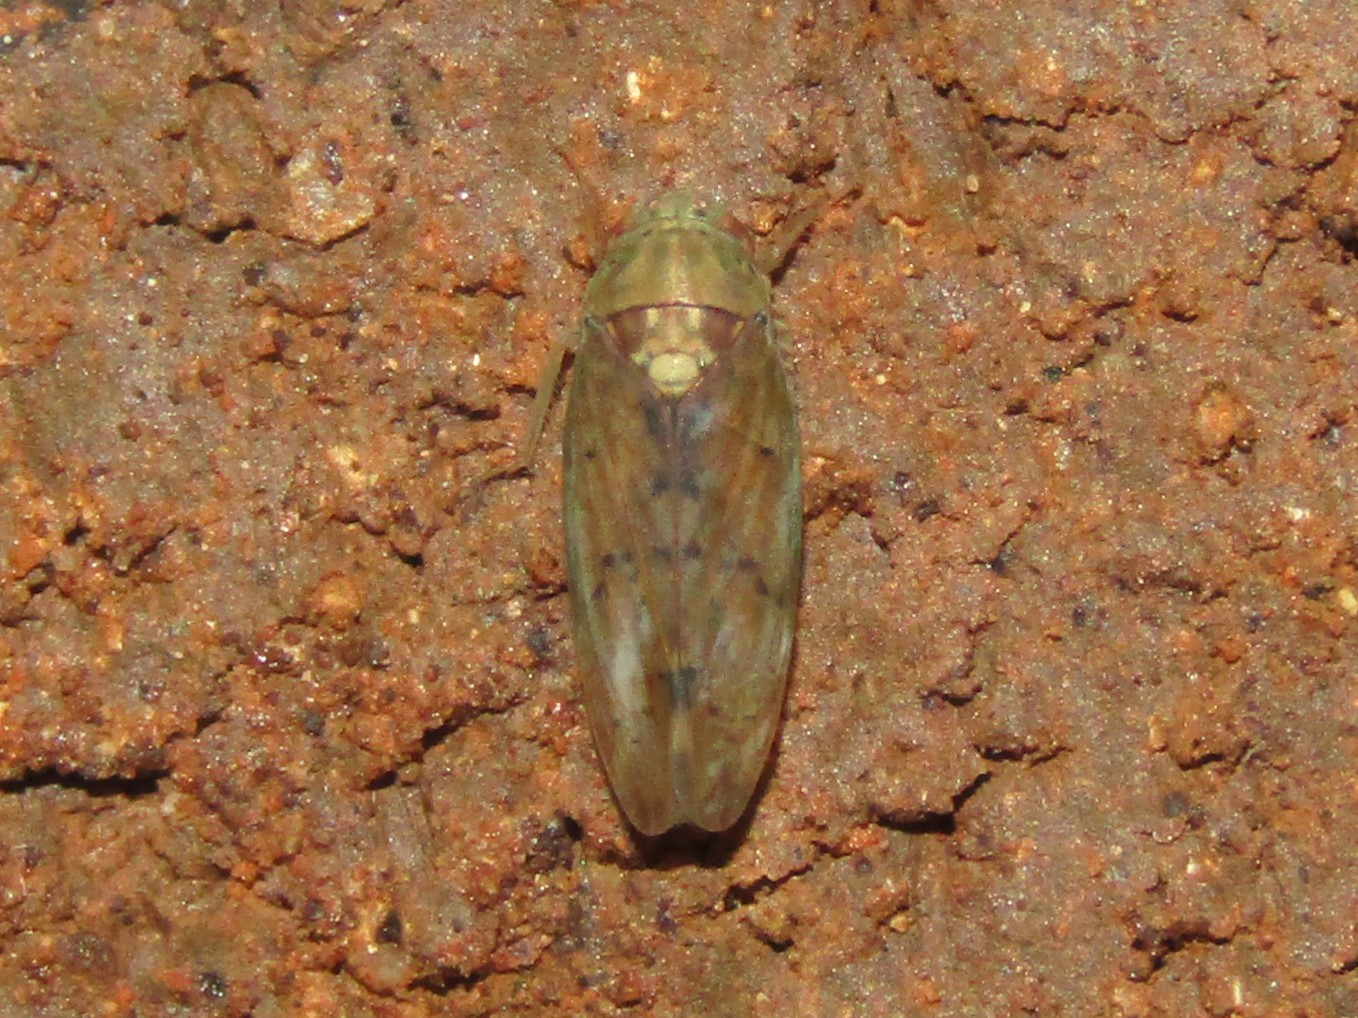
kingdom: Animalia
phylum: Arthropoda
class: Insecta
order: Hemiptera
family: Cicadellidae
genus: Ponana
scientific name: Ponana quadralaba
